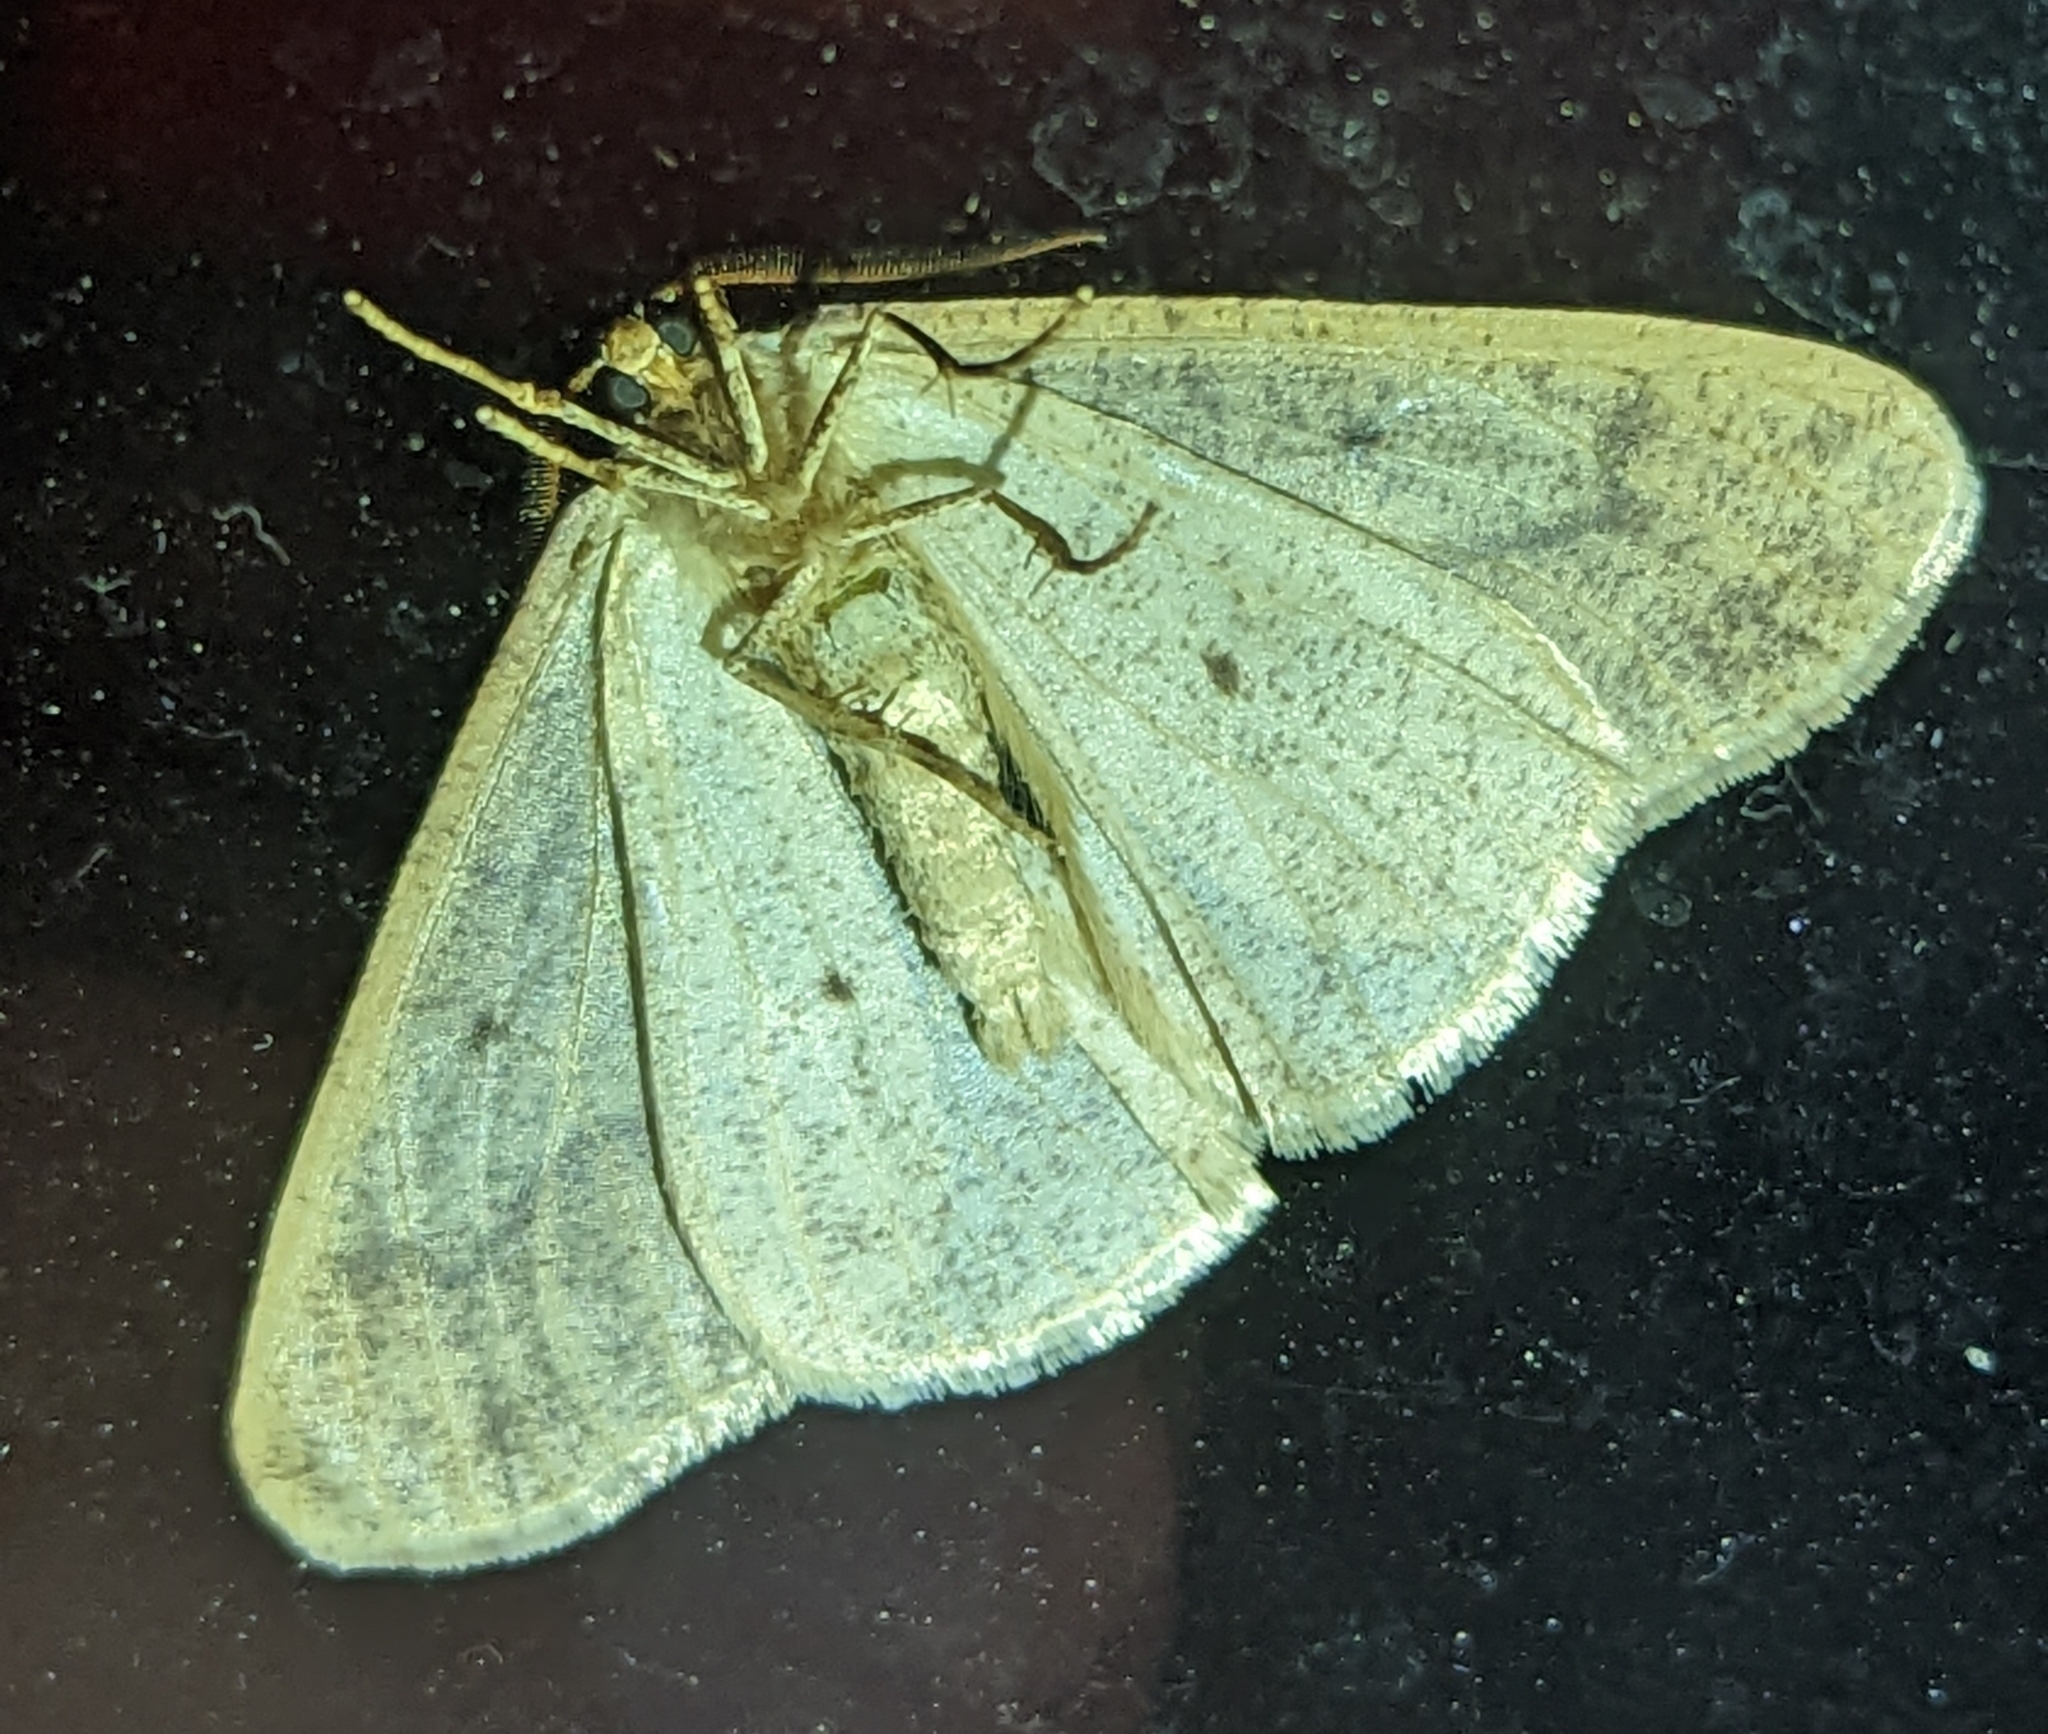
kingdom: Animalia
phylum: Arthropoda
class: Insecta
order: Lepidoptera
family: Geometridae
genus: Erannis
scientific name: Erannis tiliaria
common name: Linden looper
